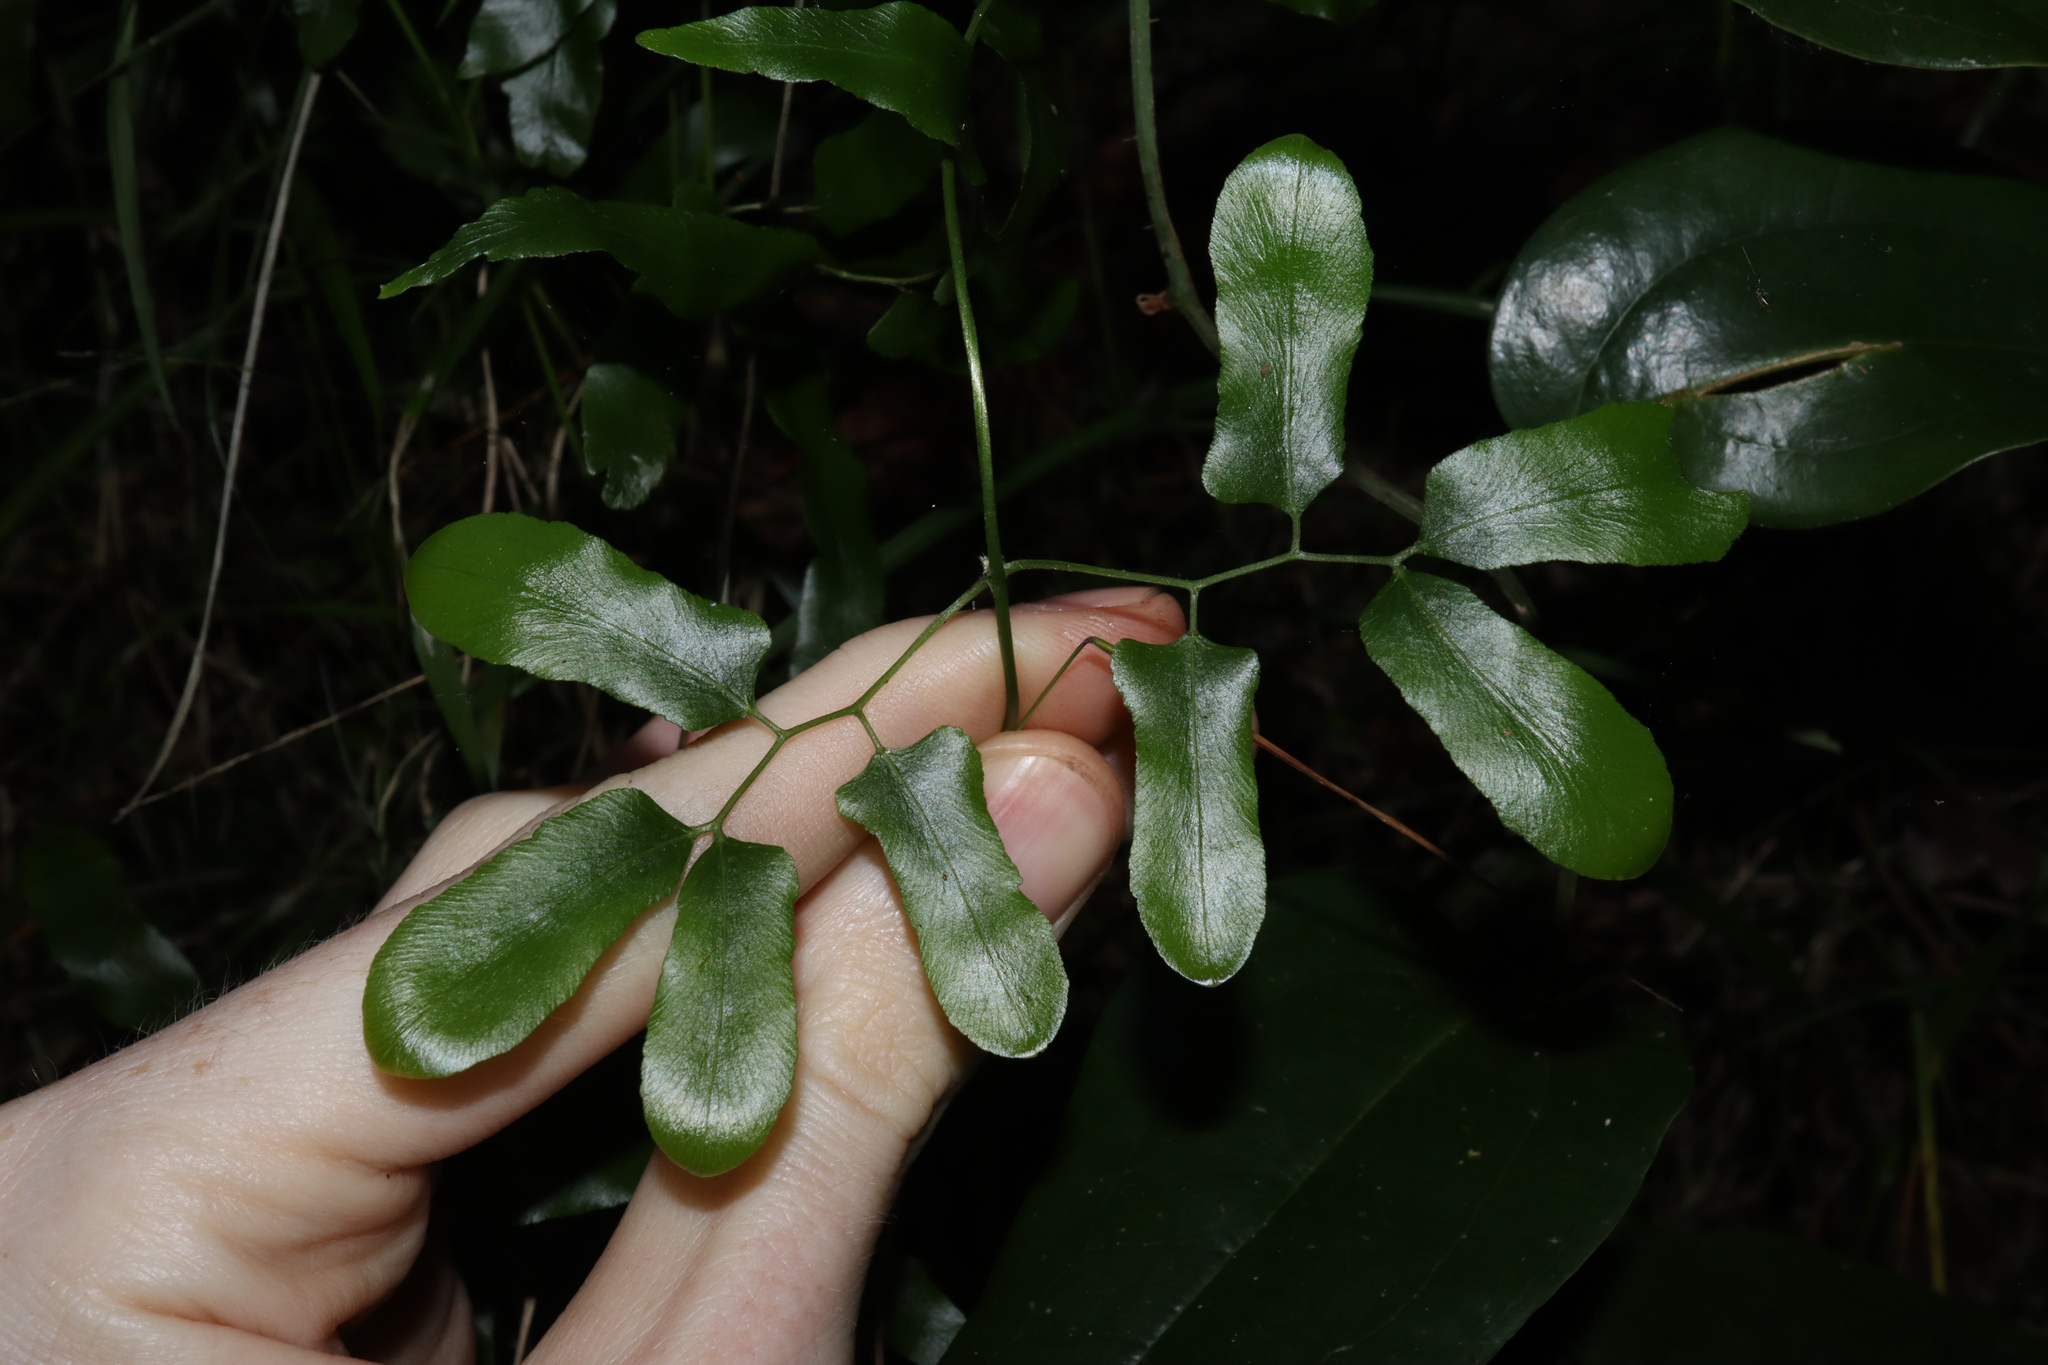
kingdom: Plantae
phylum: Tracheophyta
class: Polypodiopsida
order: Schizaeales
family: Lygodiaceae
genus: Lygodium
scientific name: Lygodium reticulatum
